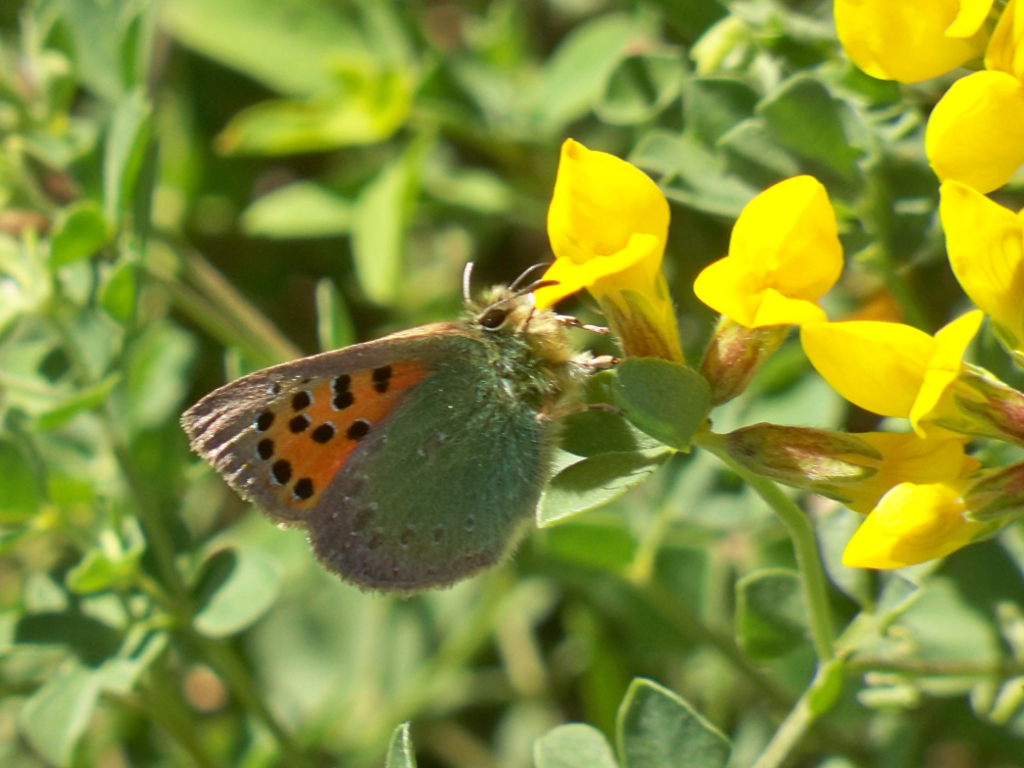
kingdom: Animalia
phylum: Arthropoda
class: Insecta
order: Lepidoptera
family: Lycaenidae
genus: Tomares
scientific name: Tomares ballus
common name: Provence hairstreak
